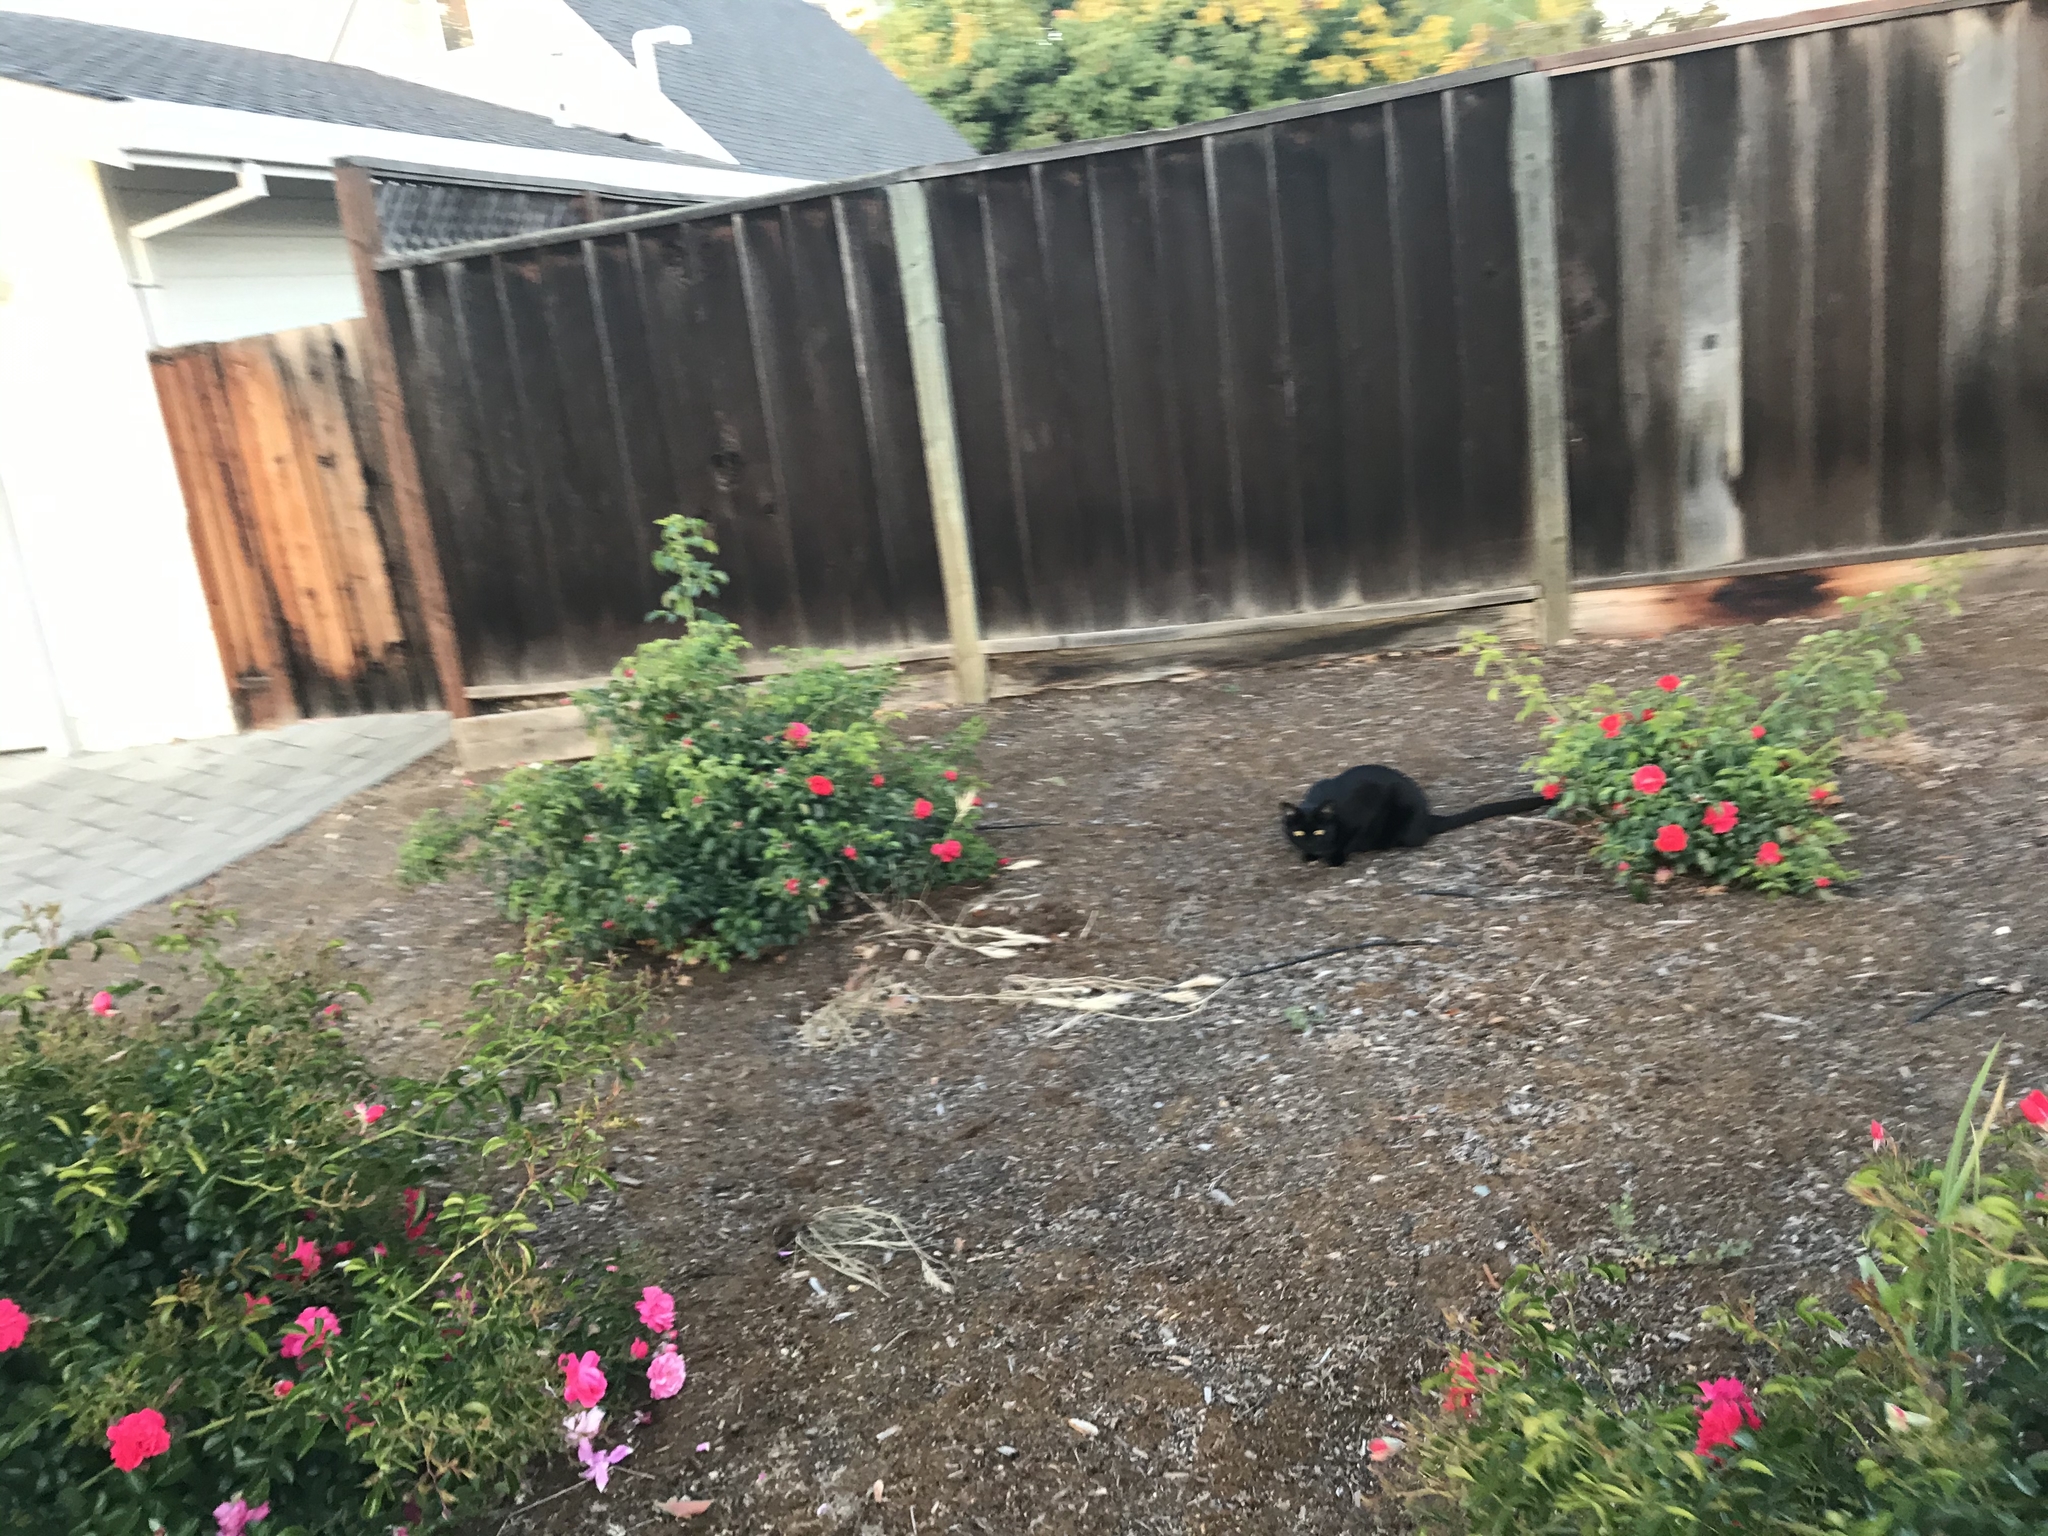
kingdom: Animalia
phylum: Chordata
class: Mammalia
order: Carnivora
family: Felidae
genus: Felis
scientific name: Felis catus
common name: Domestic cat
